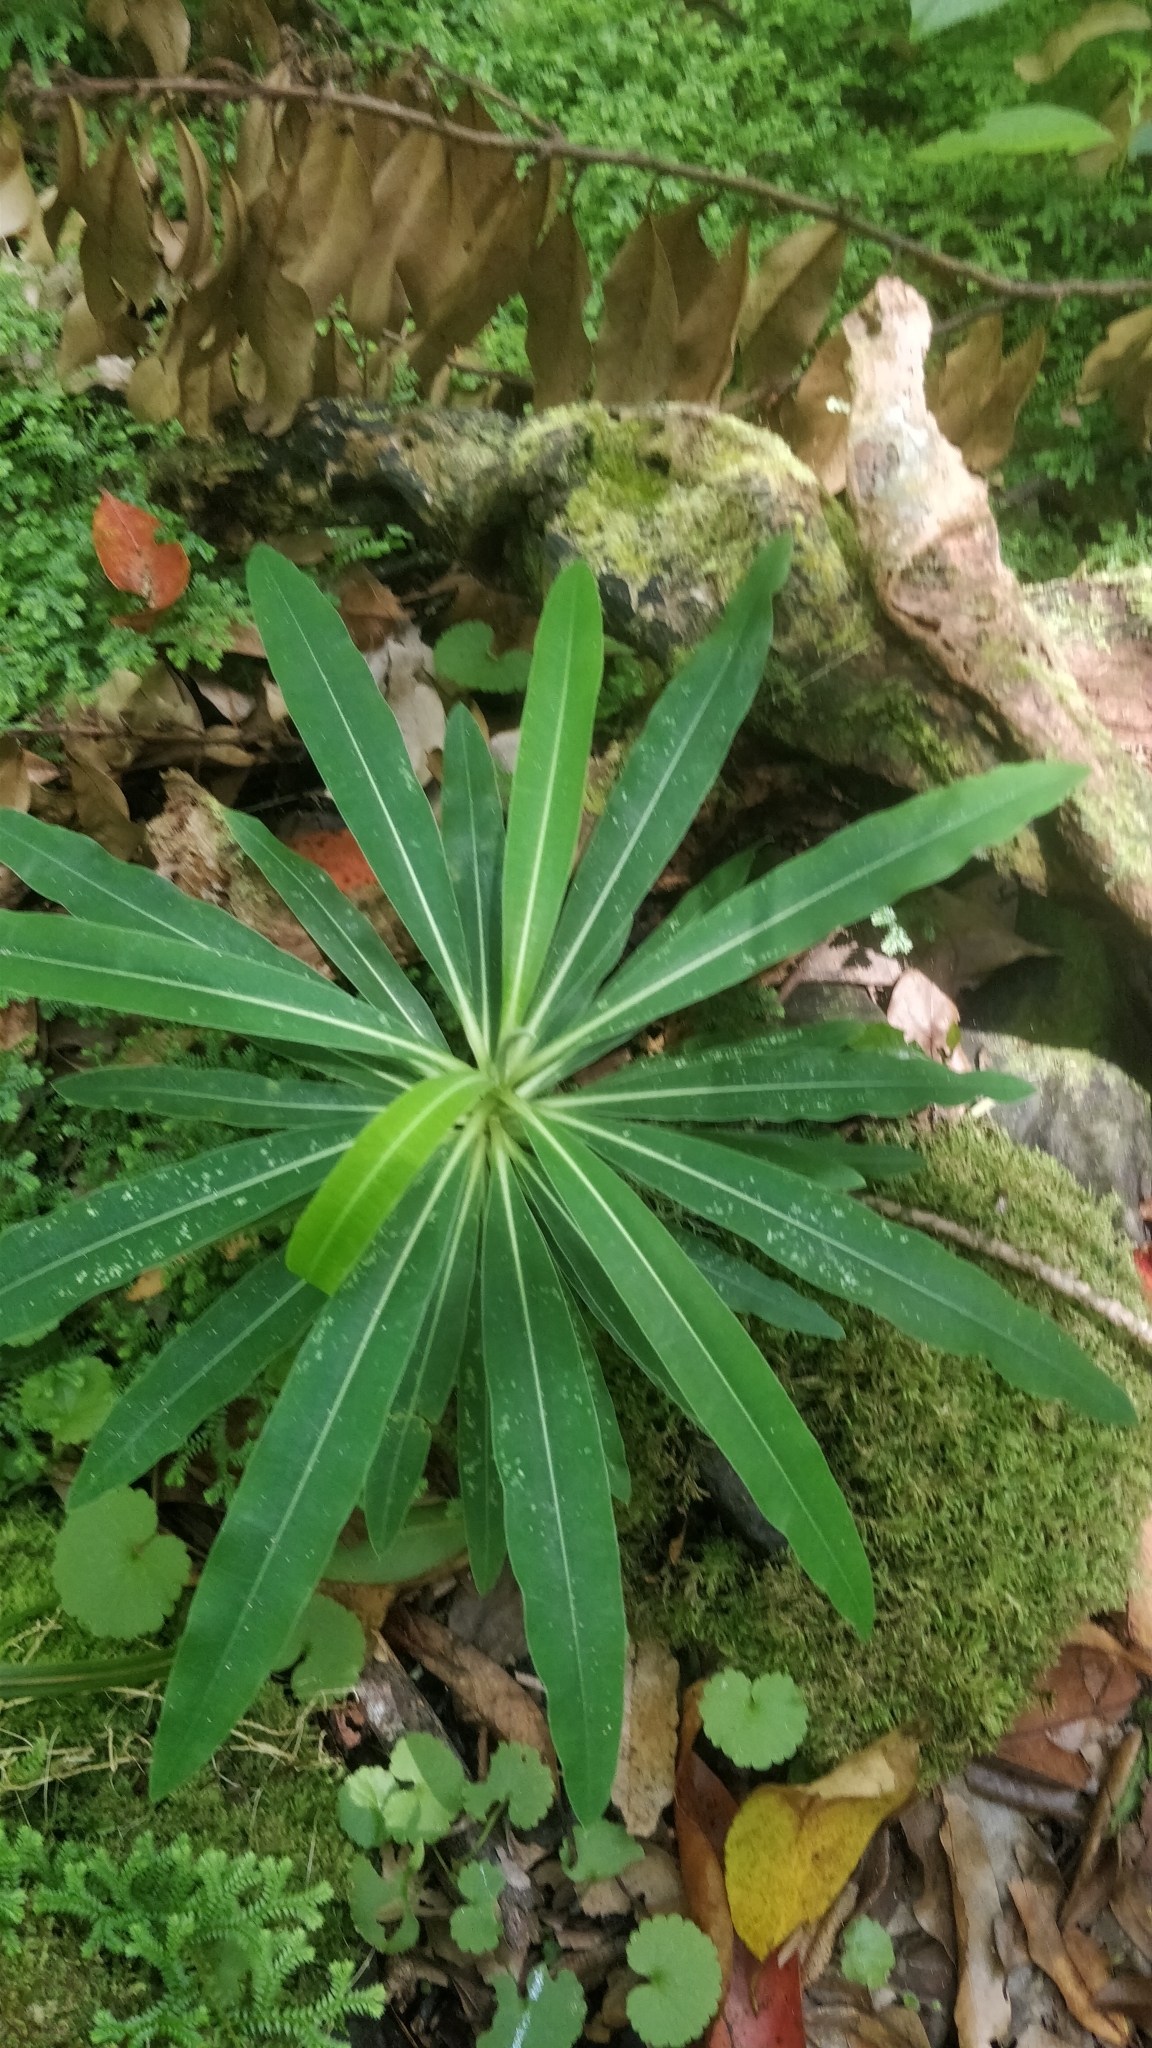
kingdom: Plantae
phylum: Tracheophyta
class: Magnoliopsida
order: Malpighiales
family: Euphorbiaceae
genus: Euphorbia
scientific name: Euphorbia mellifera
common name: Canary spurge
